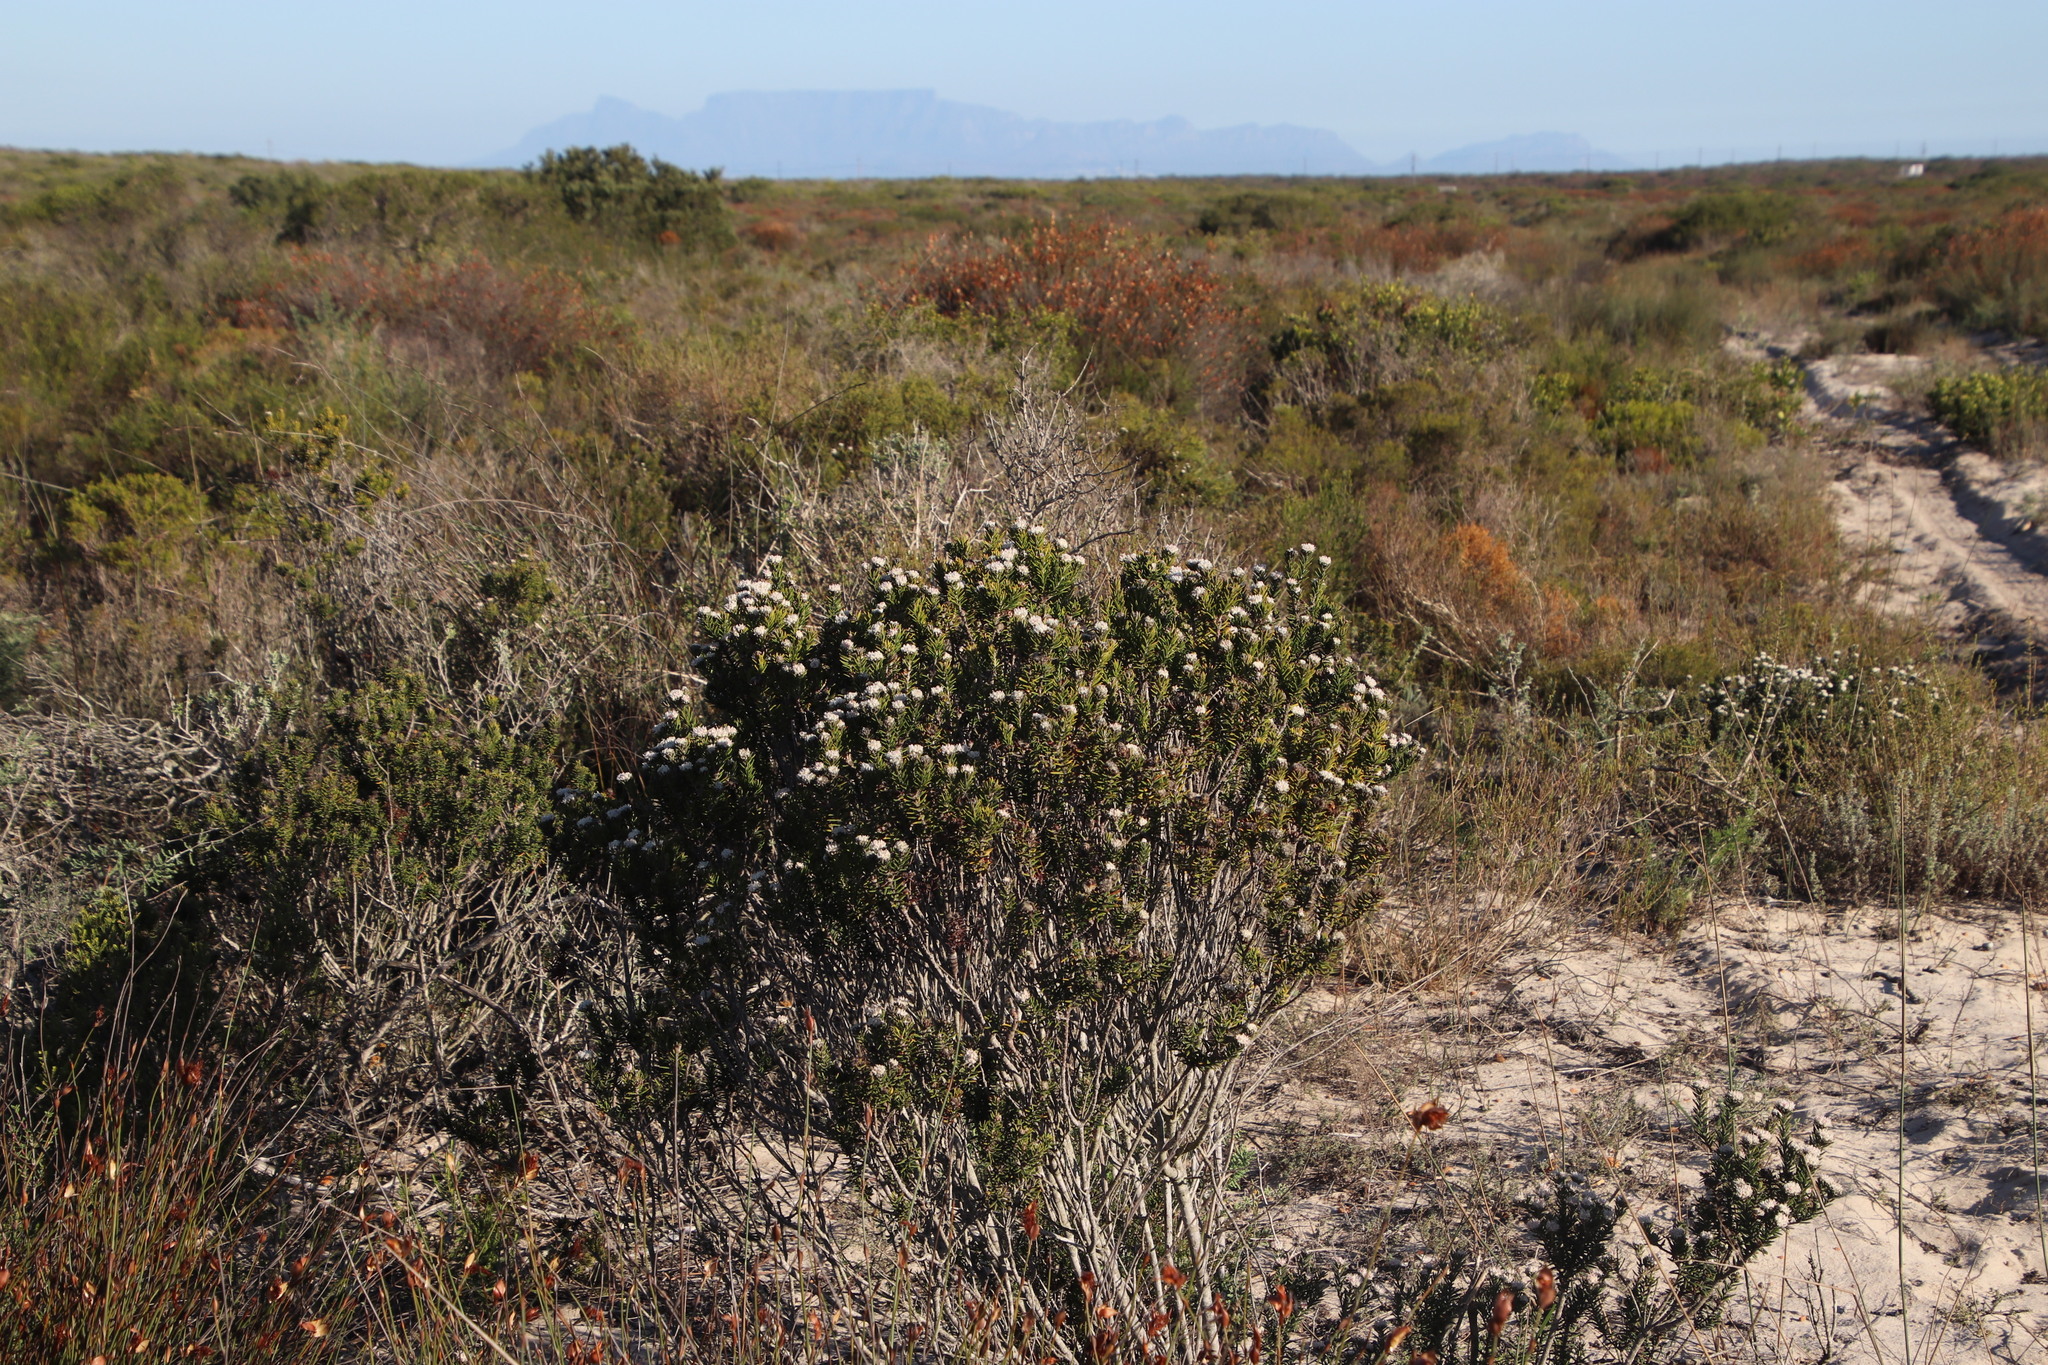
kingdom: Plantae
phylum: Tracheophyta
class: Magnoliopsida
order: Rosales
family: Rhamnaceae
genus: Trichocephalus
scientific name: Trichocephalus stipularis
